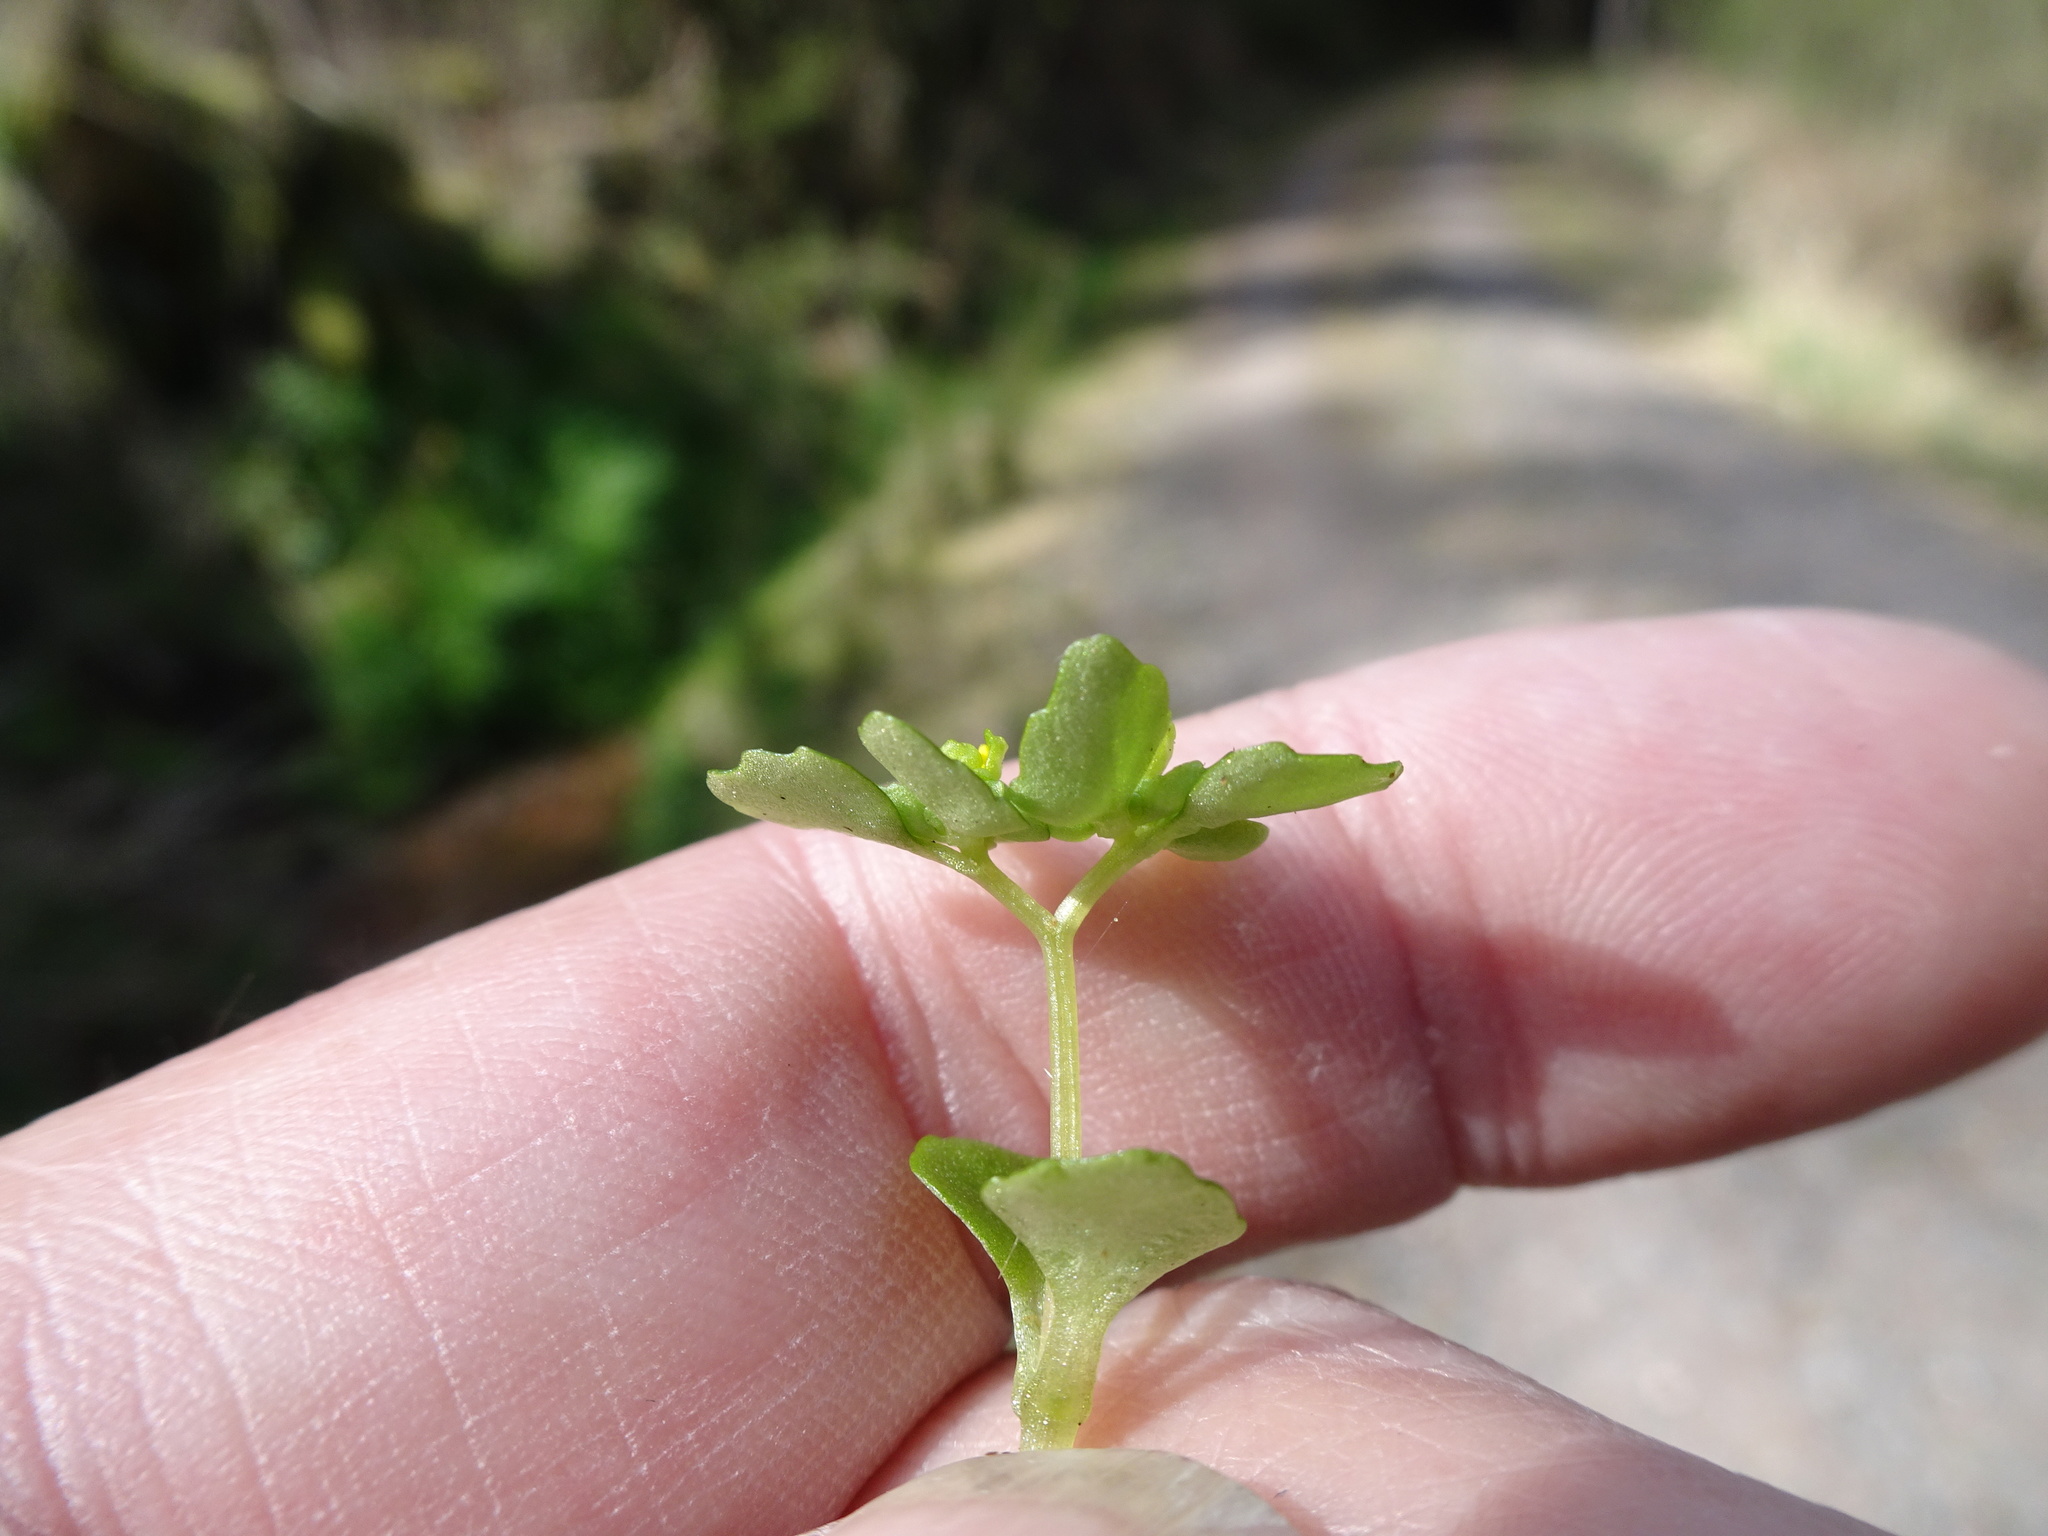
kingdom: Plantae
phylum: Tracheophyta
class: Magnoliopsida
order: Saxifragales
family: Saxifragaceae
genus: Chrysosplenium
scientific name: Chrysosplenium oppositifolium
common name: Opposite-leaved golden-saxifrage
